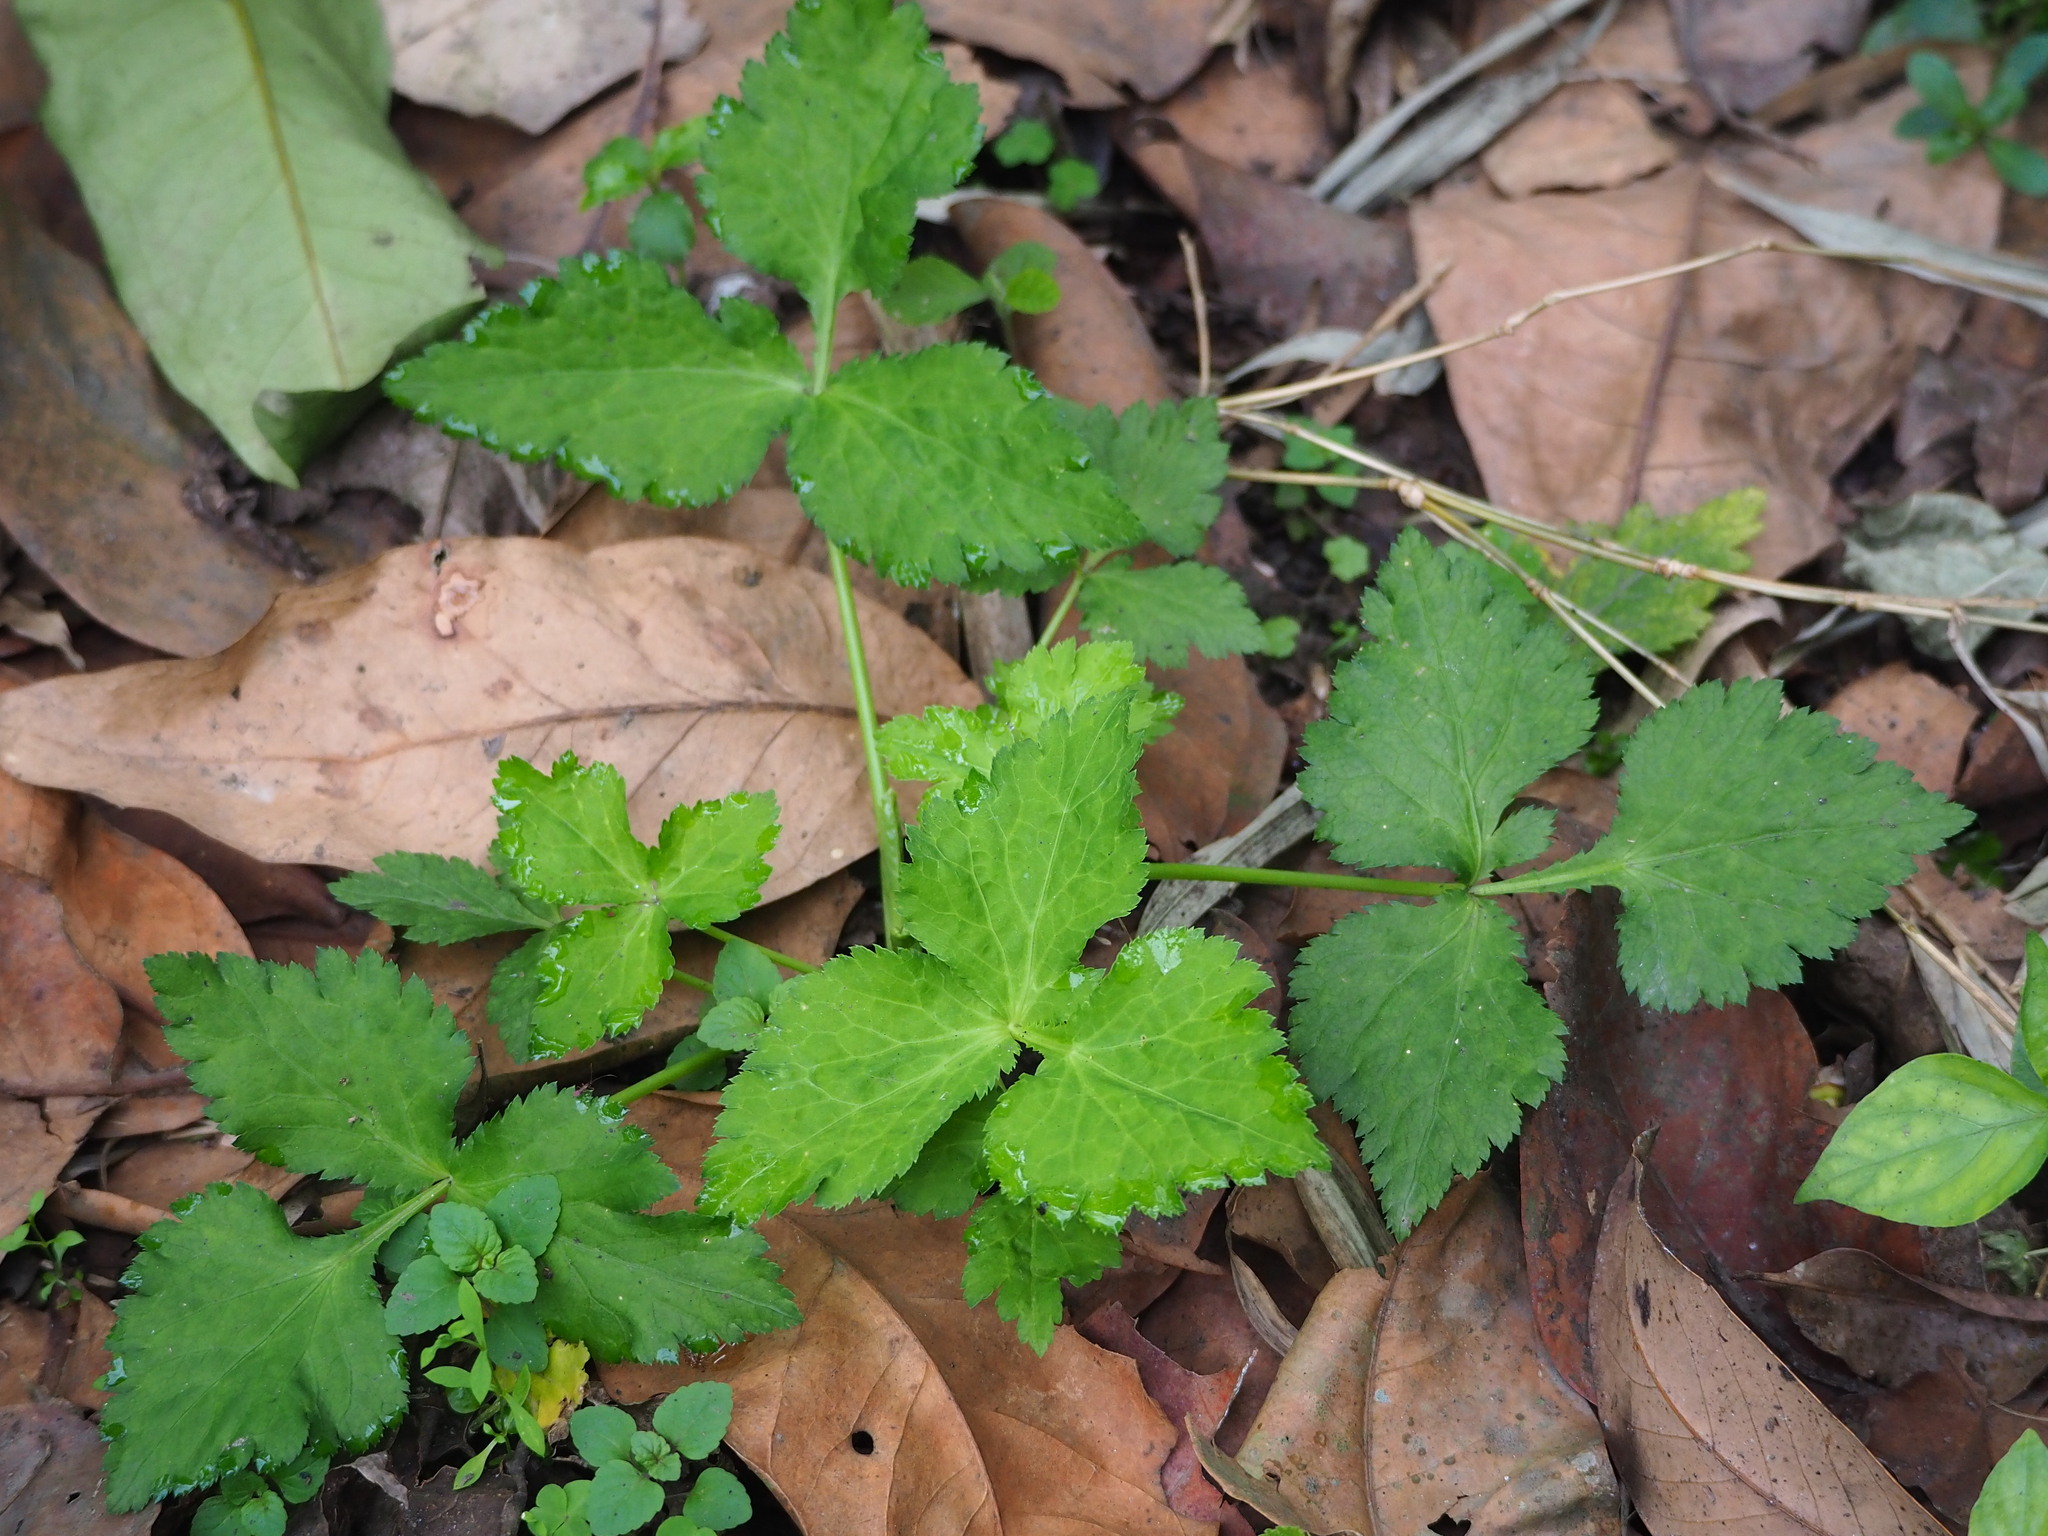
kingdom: Plantae
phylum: Tracheophyta
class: Magnoliopsida
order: Apiales
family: Apiaceae
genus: Cryptotaenia
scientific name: Cryptotaenia japonica
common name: Japanese cryptotaenia
